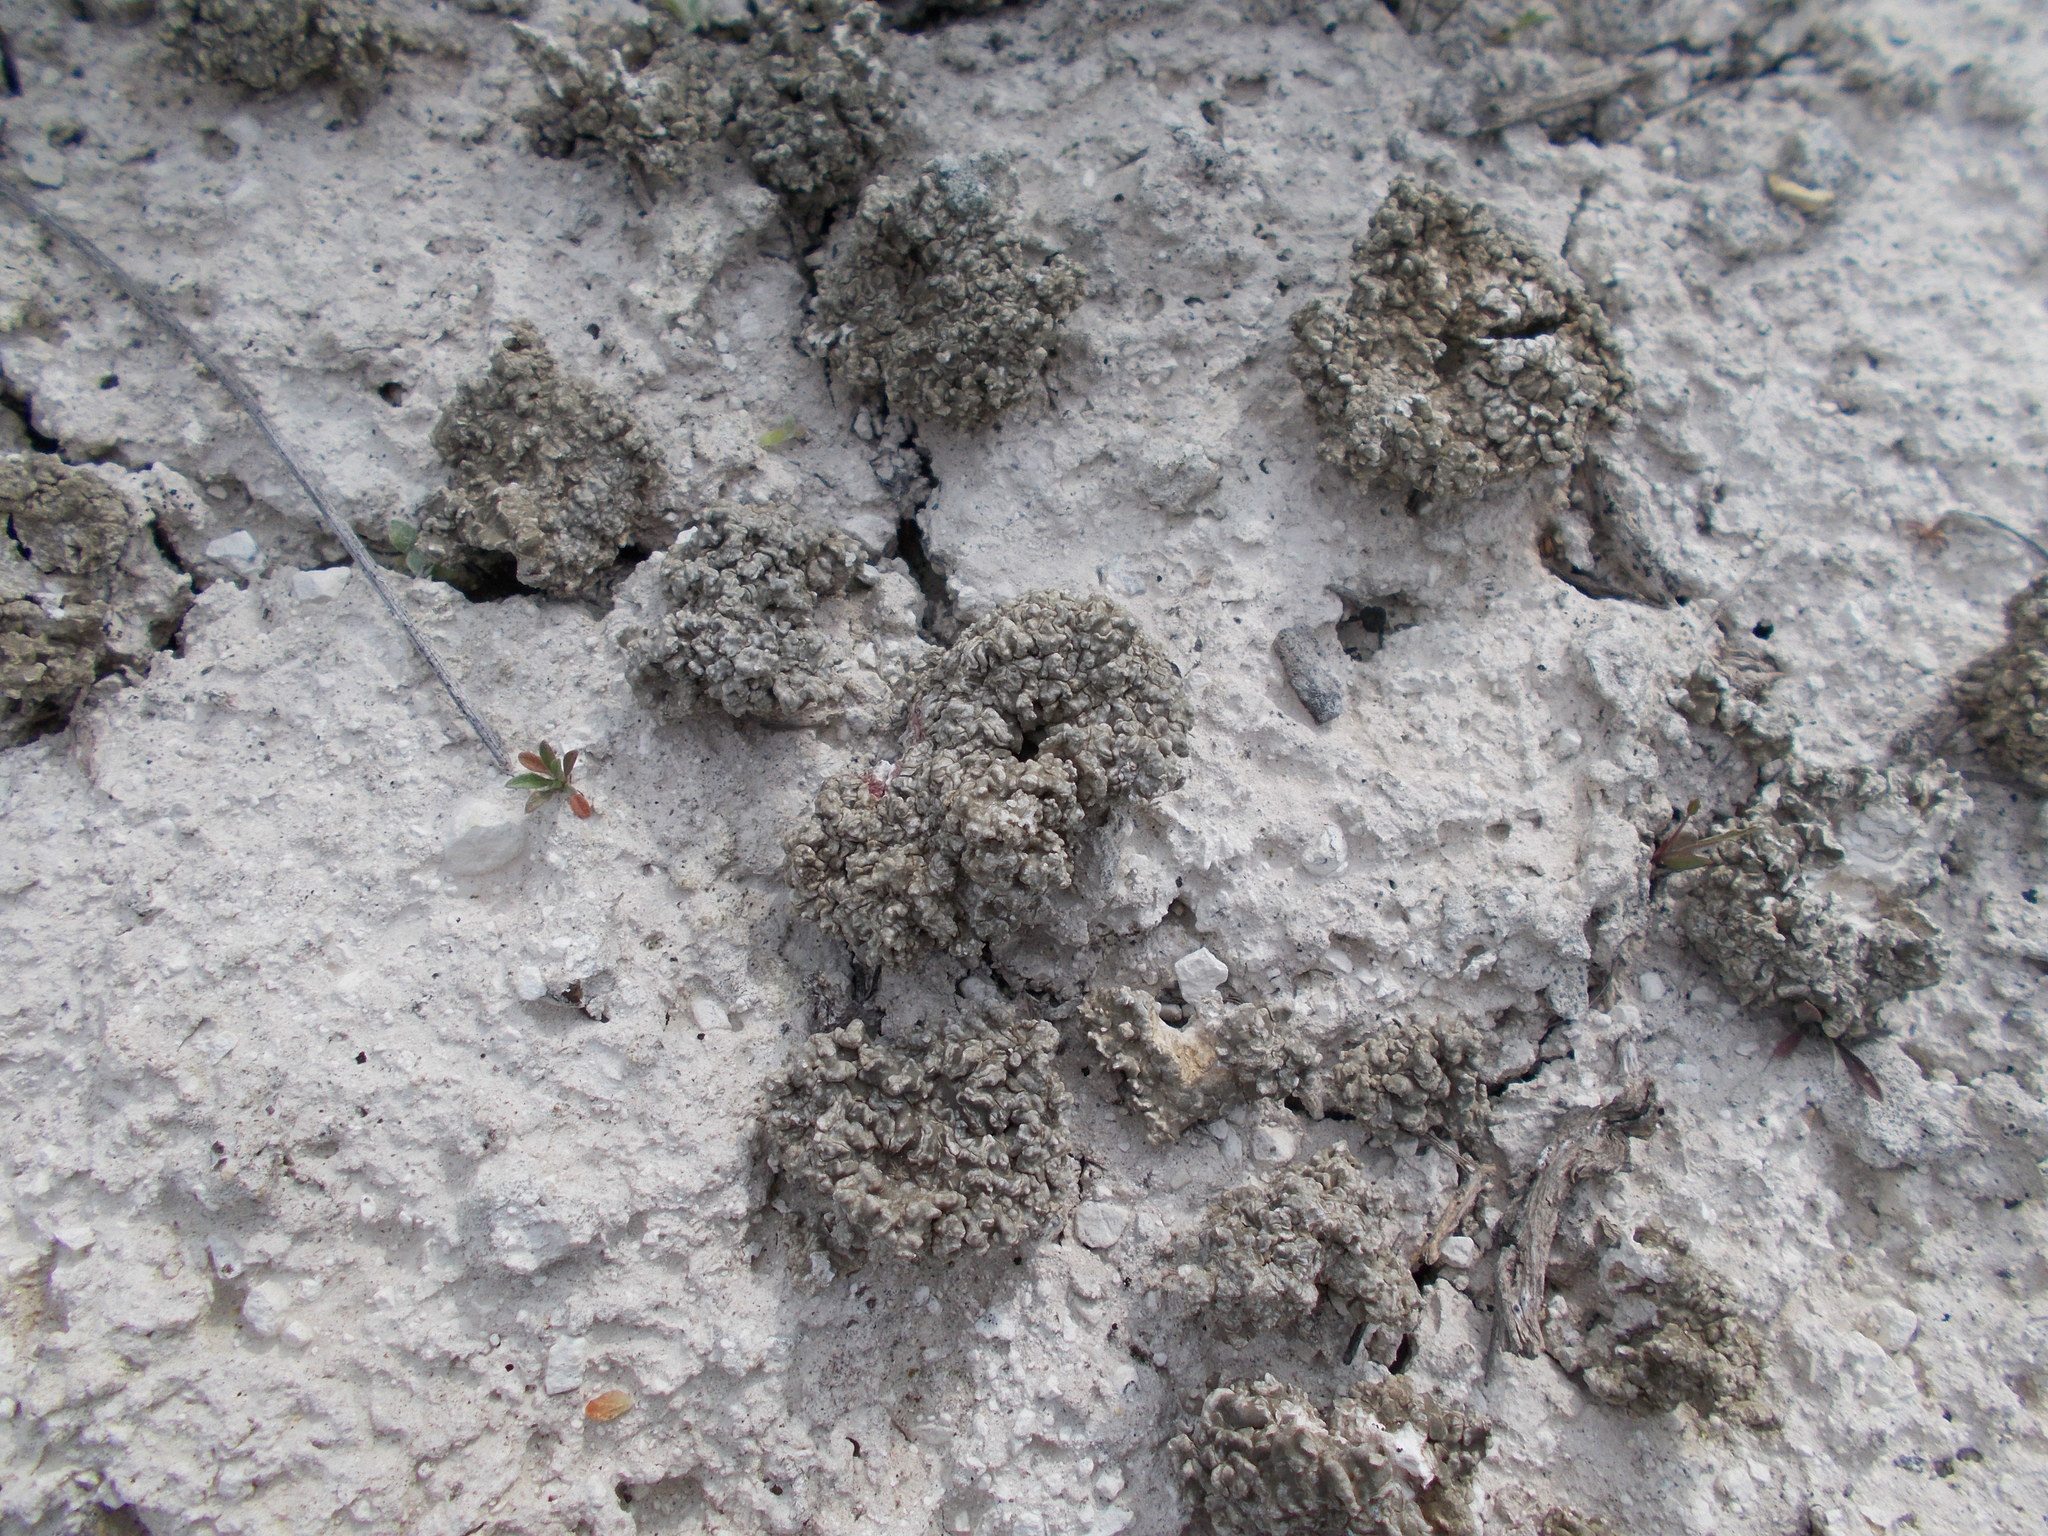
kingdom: Fungi
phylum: Ascomycota
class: Lecanoromycetes
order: Pertusariales
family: Megasporaceae
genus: Circinaria
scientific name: Circinaria esculenta
